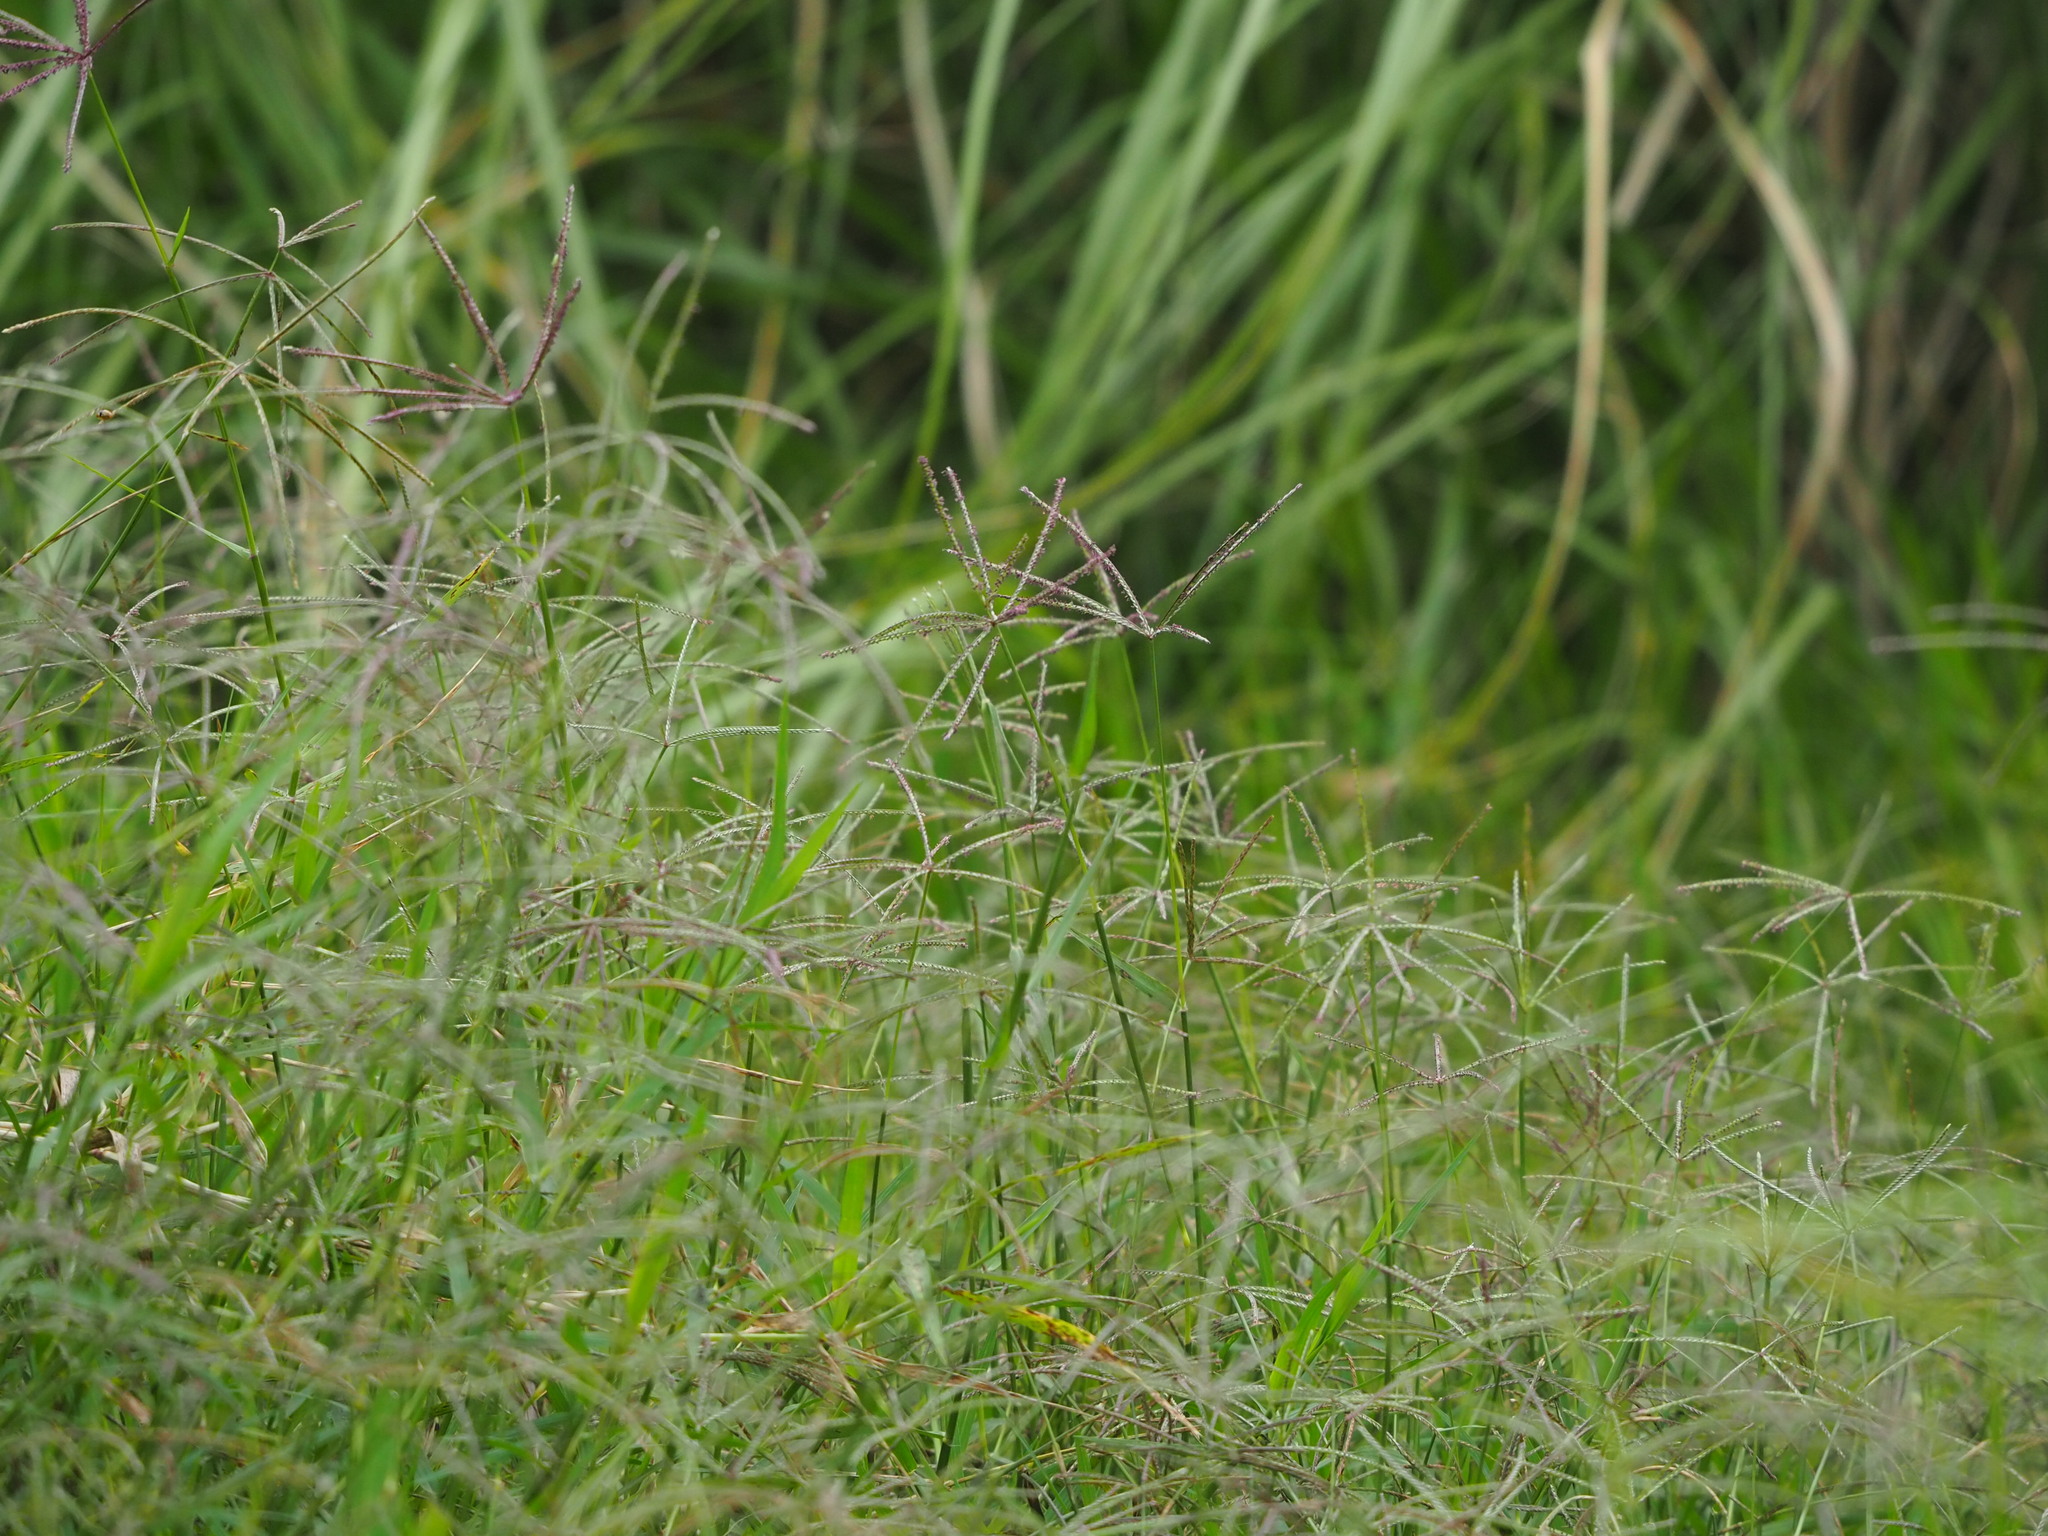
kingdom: Plantae
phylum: Tracheophyta
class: Liliopsida
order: Poales
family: Poaceae
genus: Cynodon
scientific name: Cynodon nlemfuensis
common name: African bermudagrass
